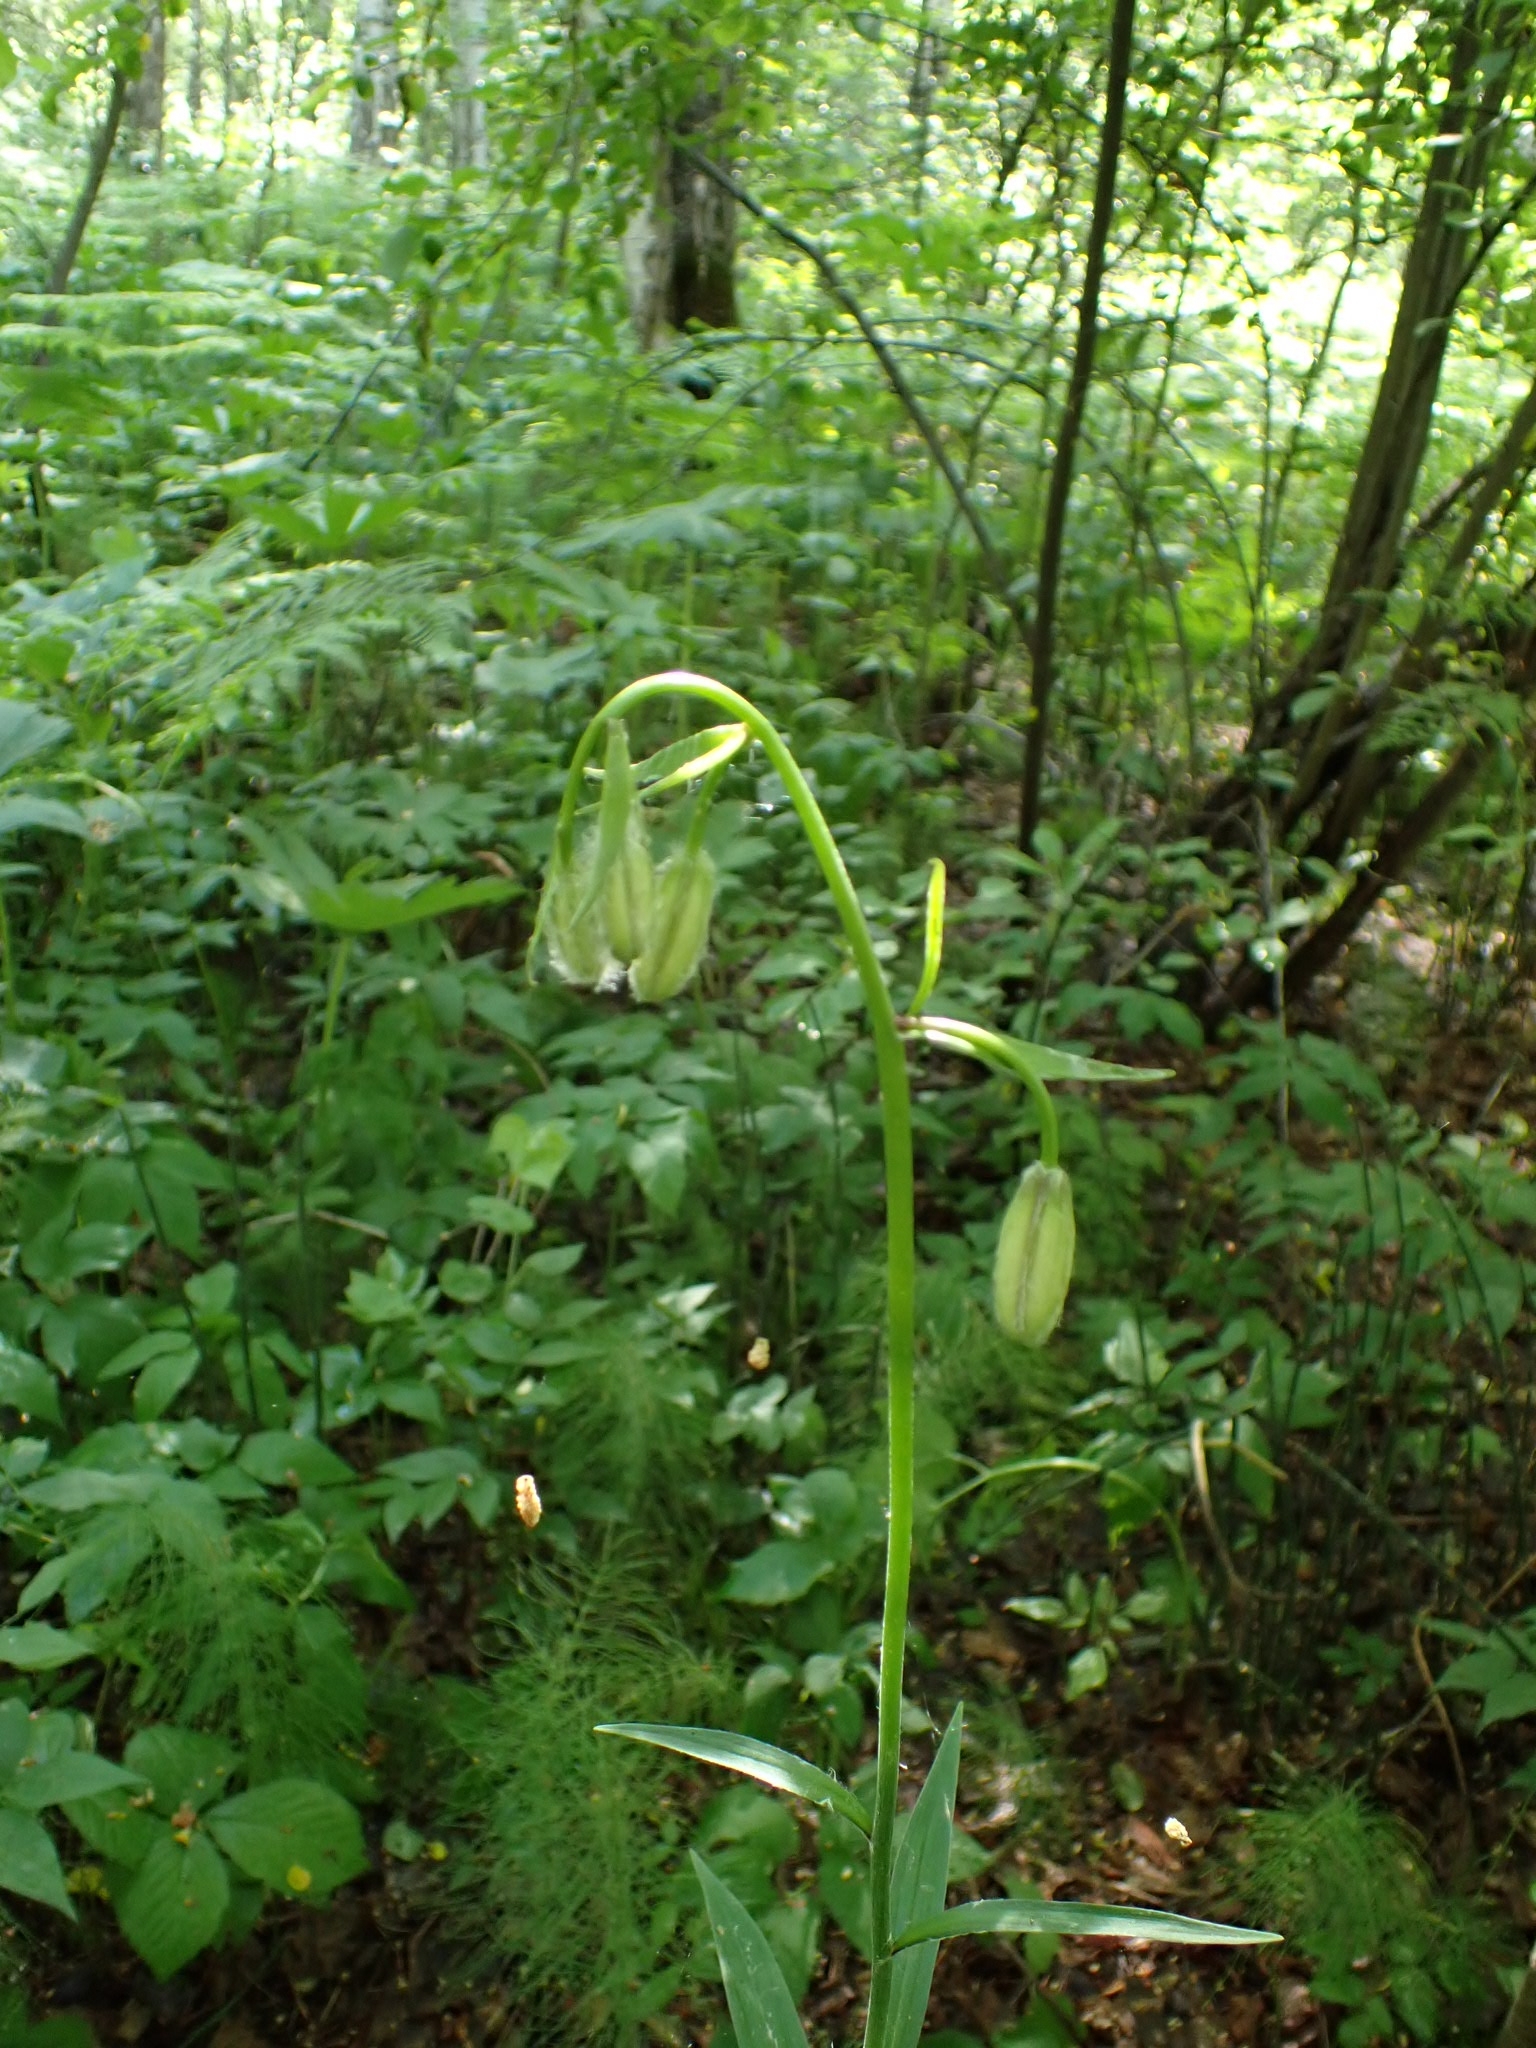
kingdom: Plantae
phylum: Tracheophyta
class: Liliopsida
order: Liliales
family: Liliaceae
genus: Lilium
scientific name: Lilium martagon
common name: Martagon lily
